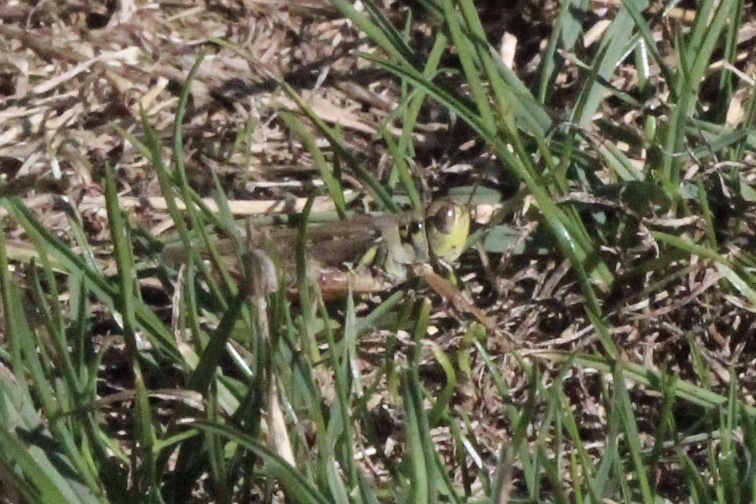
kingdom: Animalia
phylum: Arthropoda
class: Insecta
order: Orthoptera
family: Acrididae
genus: Melanoplus
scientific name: Melanoplus femurrubrum
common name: Red-legged grasshopper
